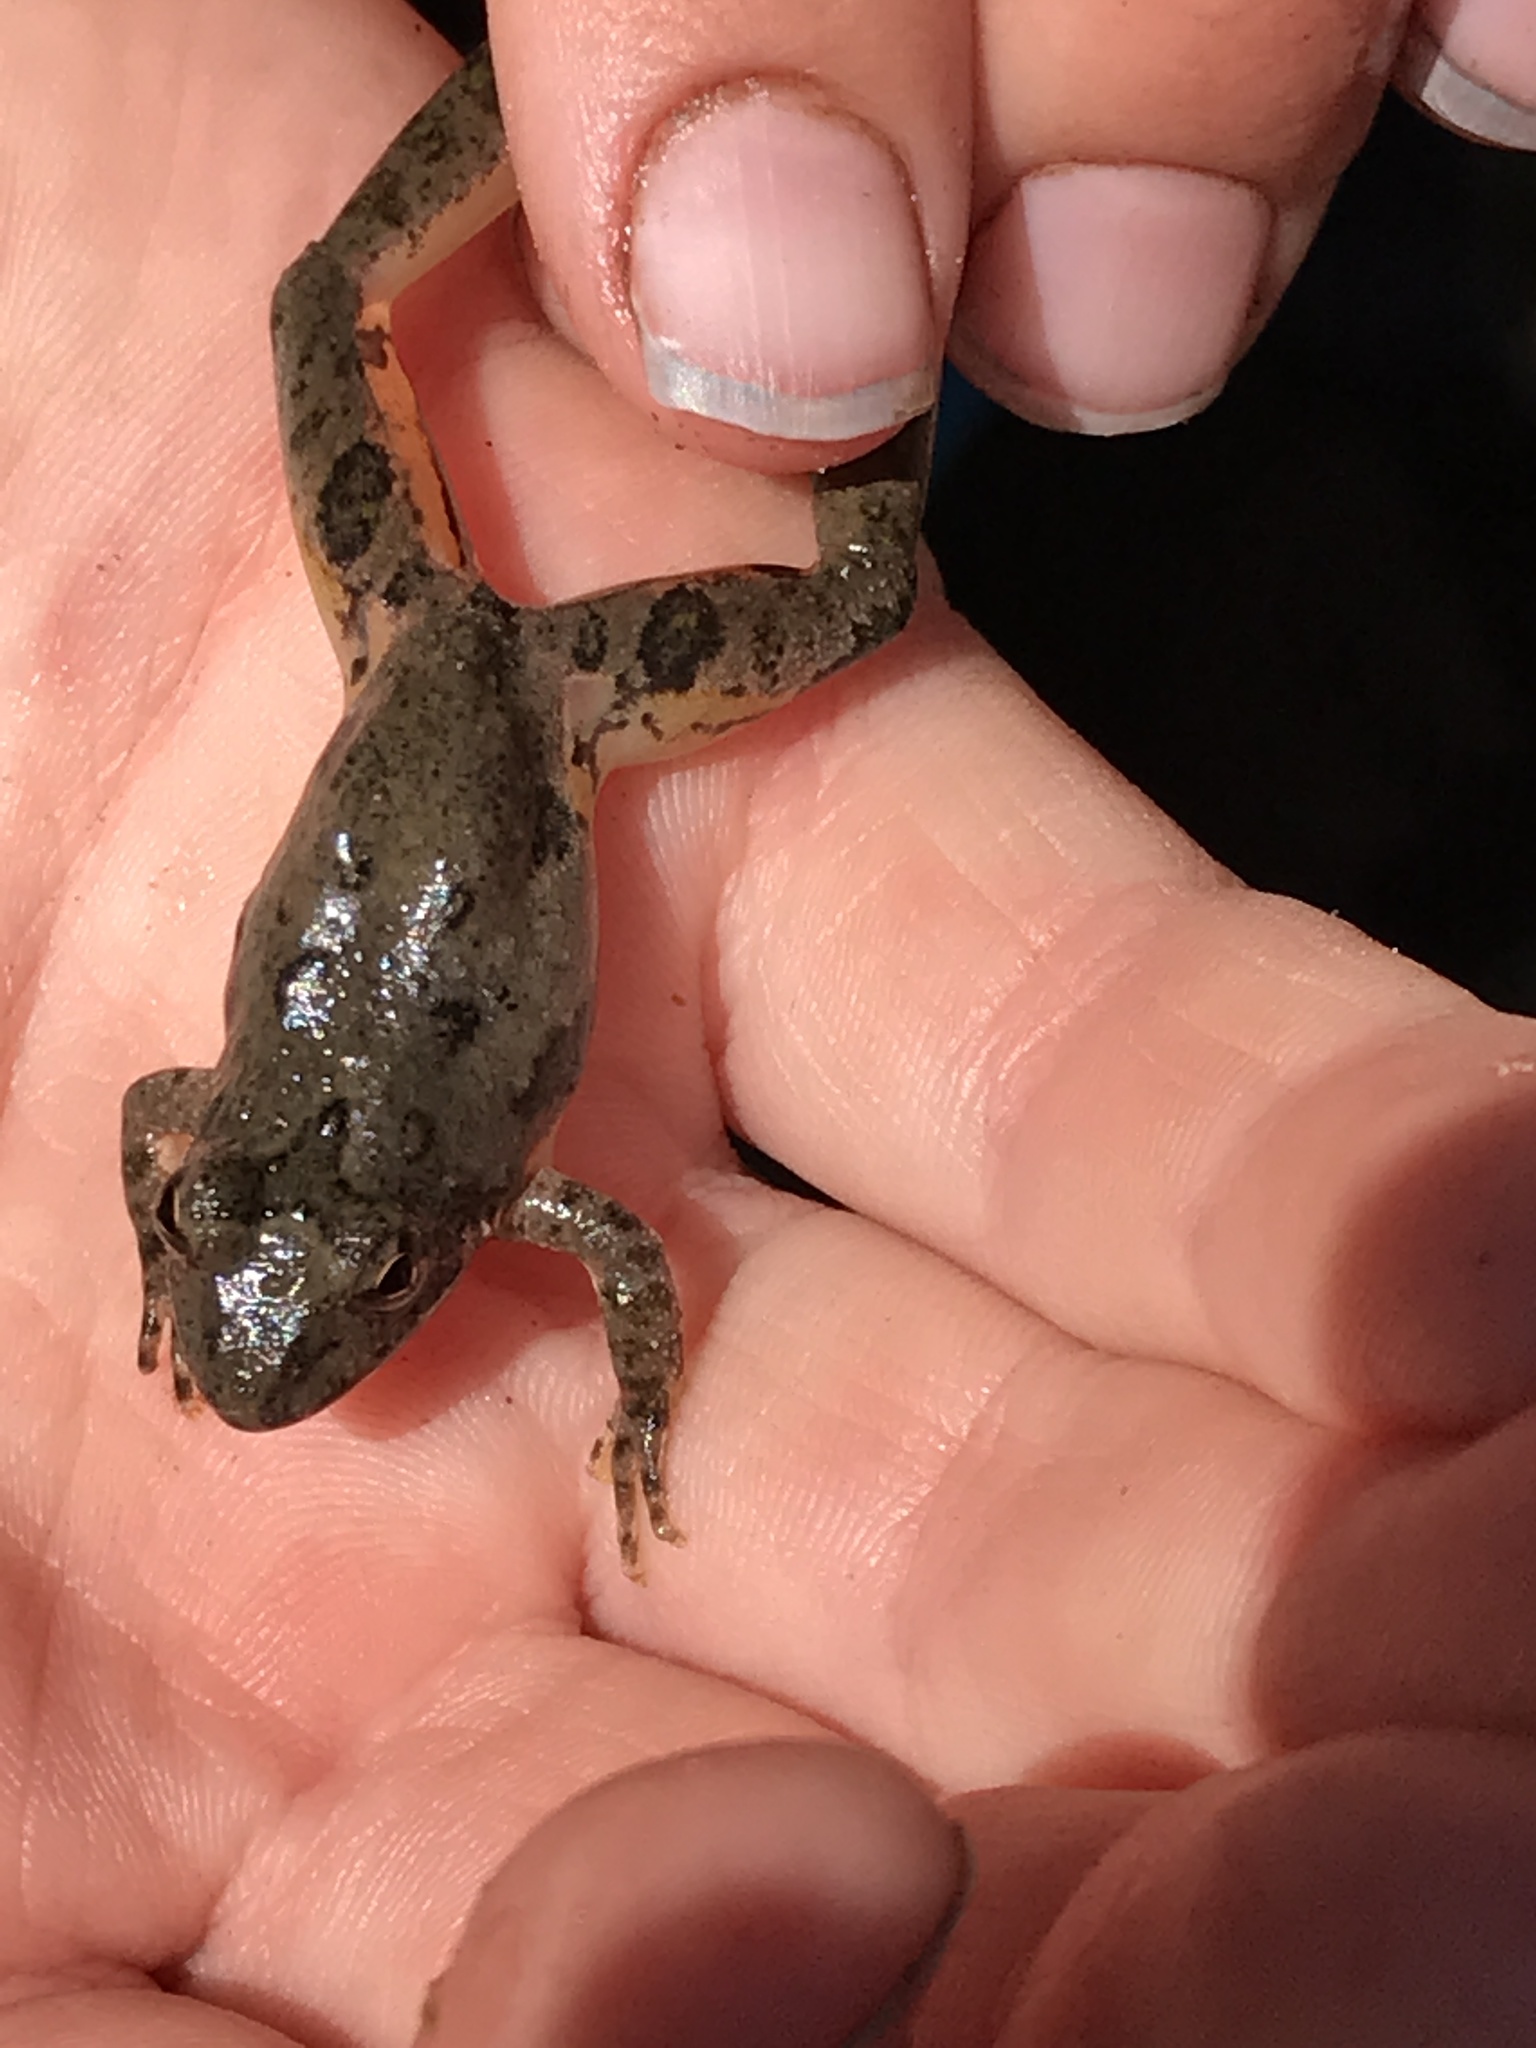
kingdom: Animalia
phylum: Chordata
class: Amphibia
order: Anura
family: Hylidae
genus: Acris
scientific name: Acris blanchardi
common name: Blanchard's cricket frog
